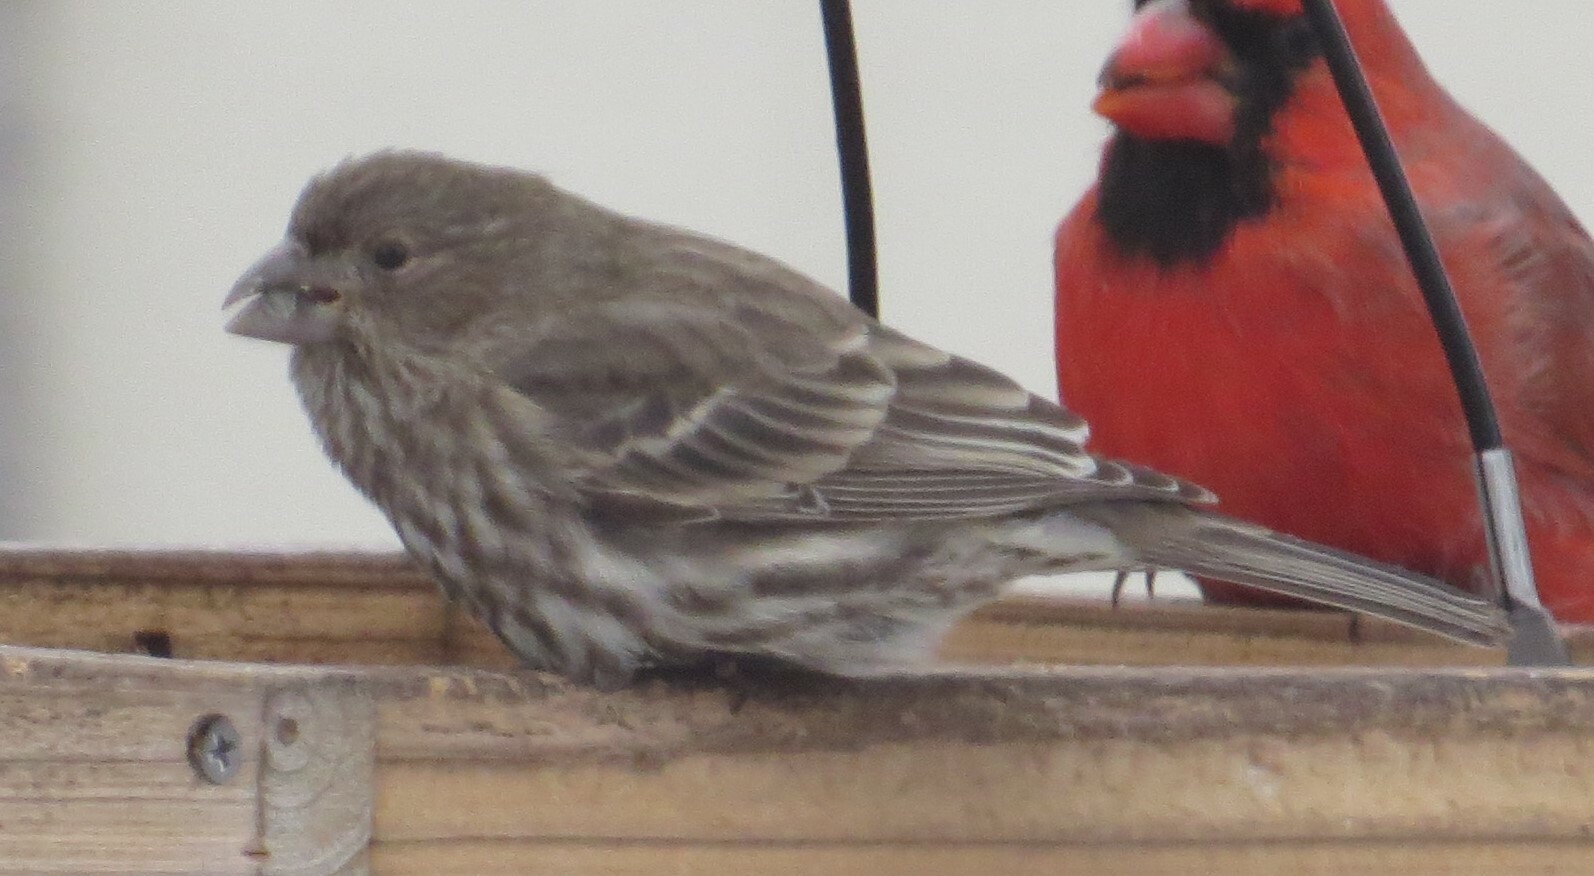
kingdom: Animalia
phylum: Chordata
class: Aves
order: Passeriformes
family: Fringillidae
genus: Haemorhous
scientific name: Haemorhous mexicanus
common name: House finch
